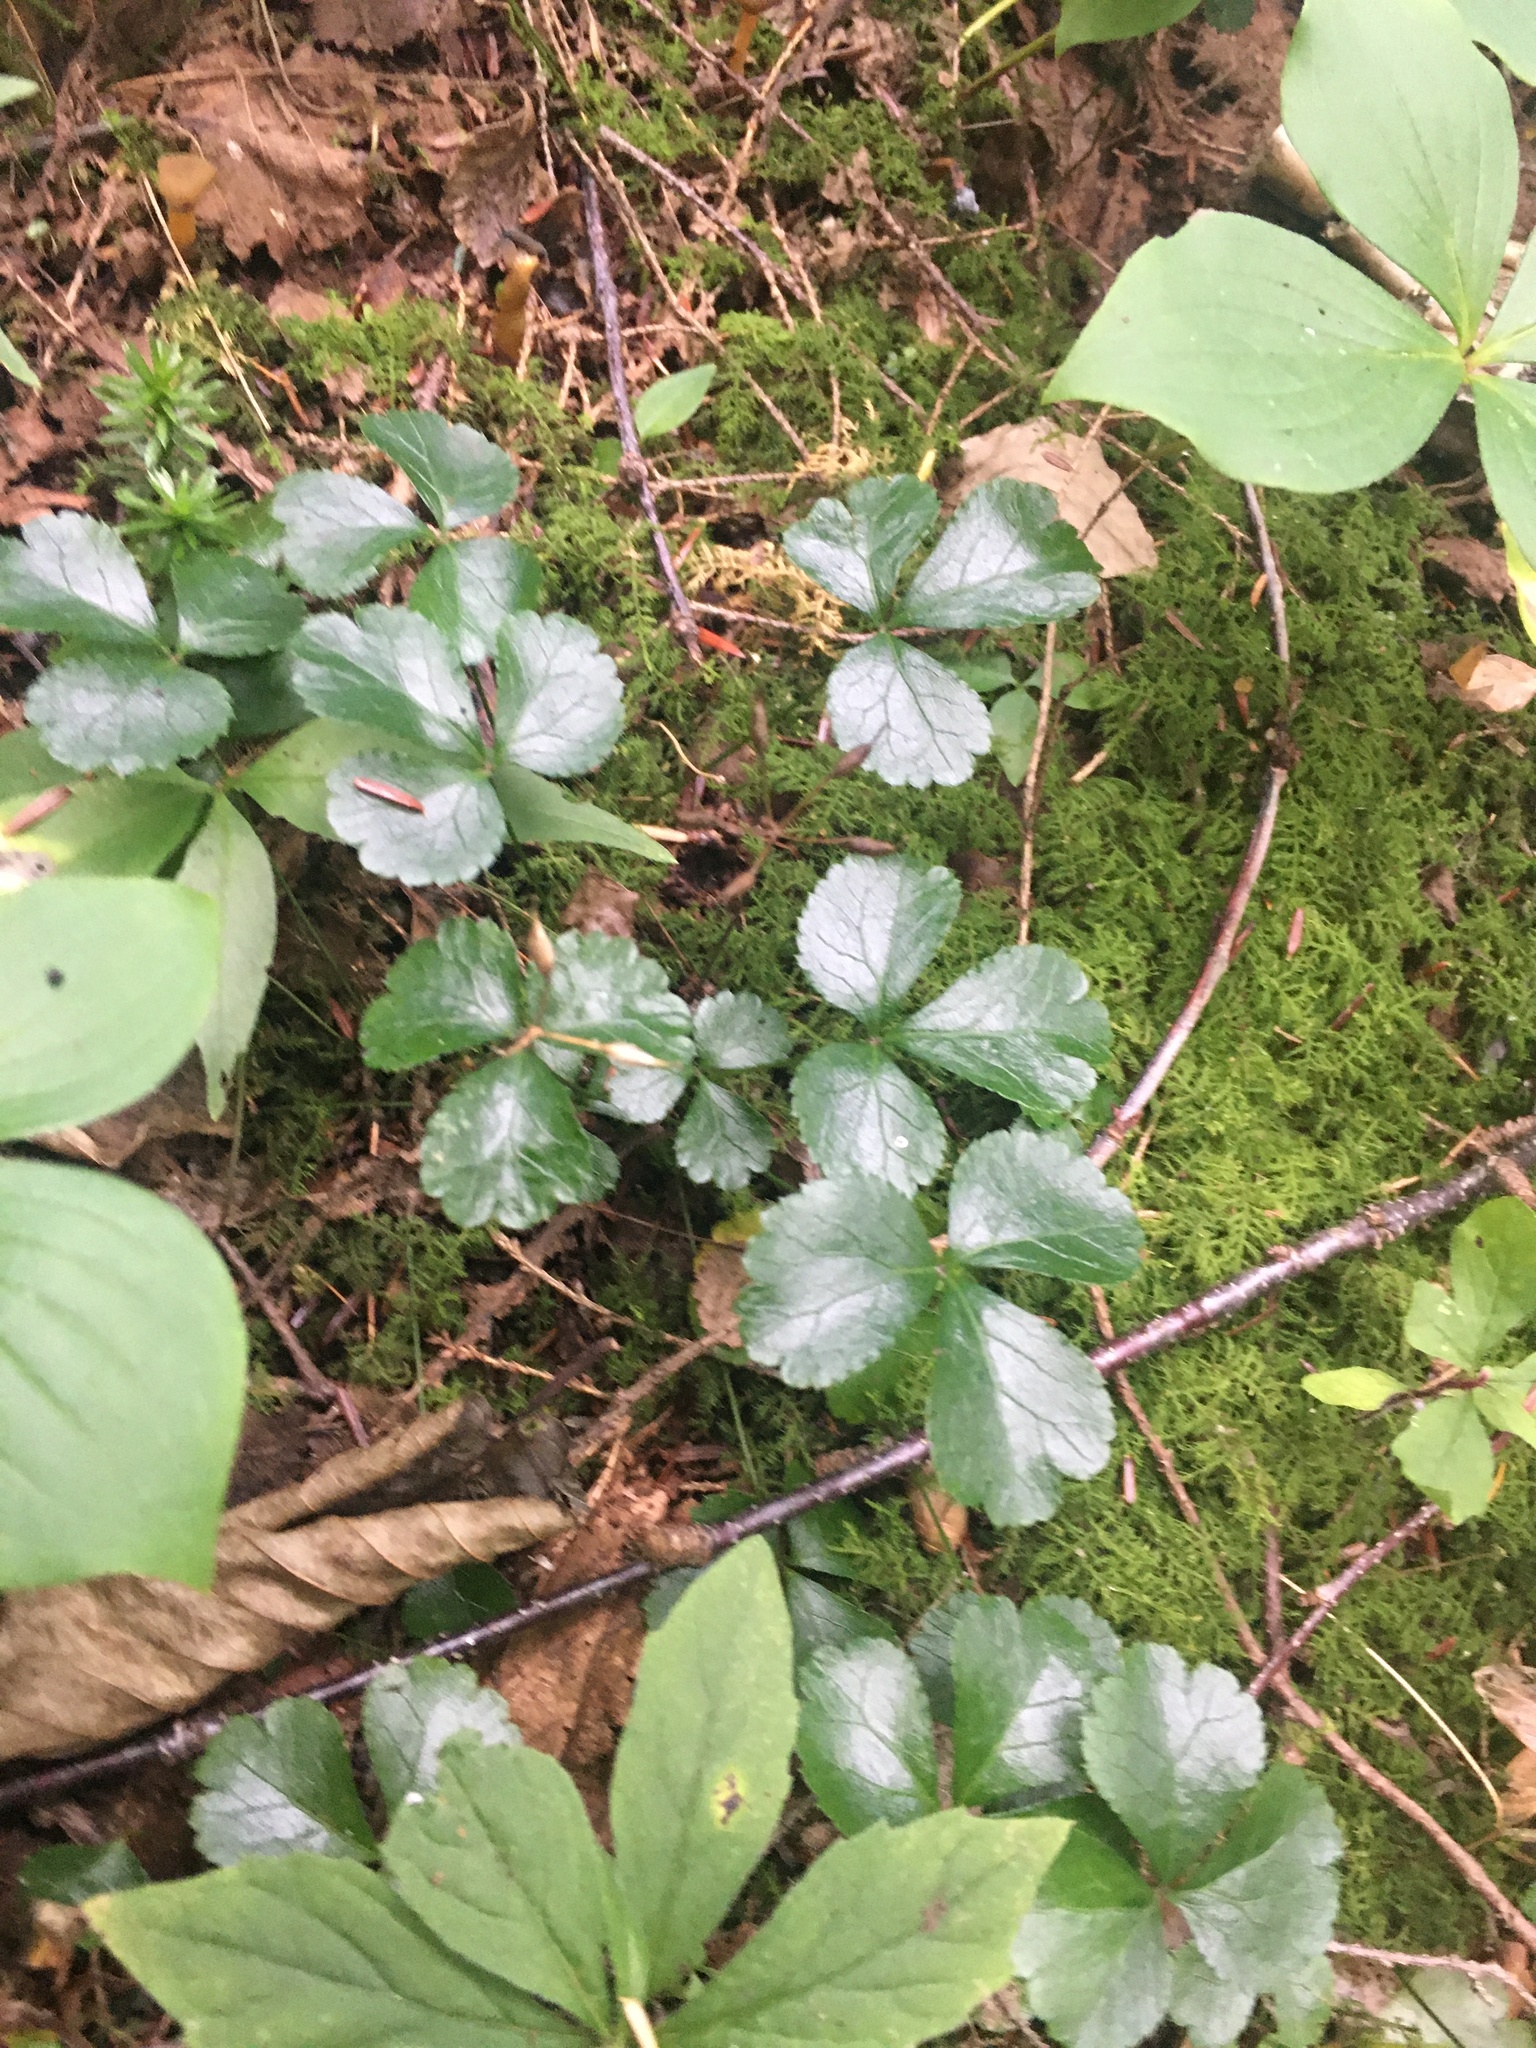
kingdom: Plantae
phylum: Tracheophyta
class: Magnoliopsida
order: Ranunculales
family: Ranunculaceae
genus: Coptis
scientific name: Coptis trifolia
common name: Canker-root
